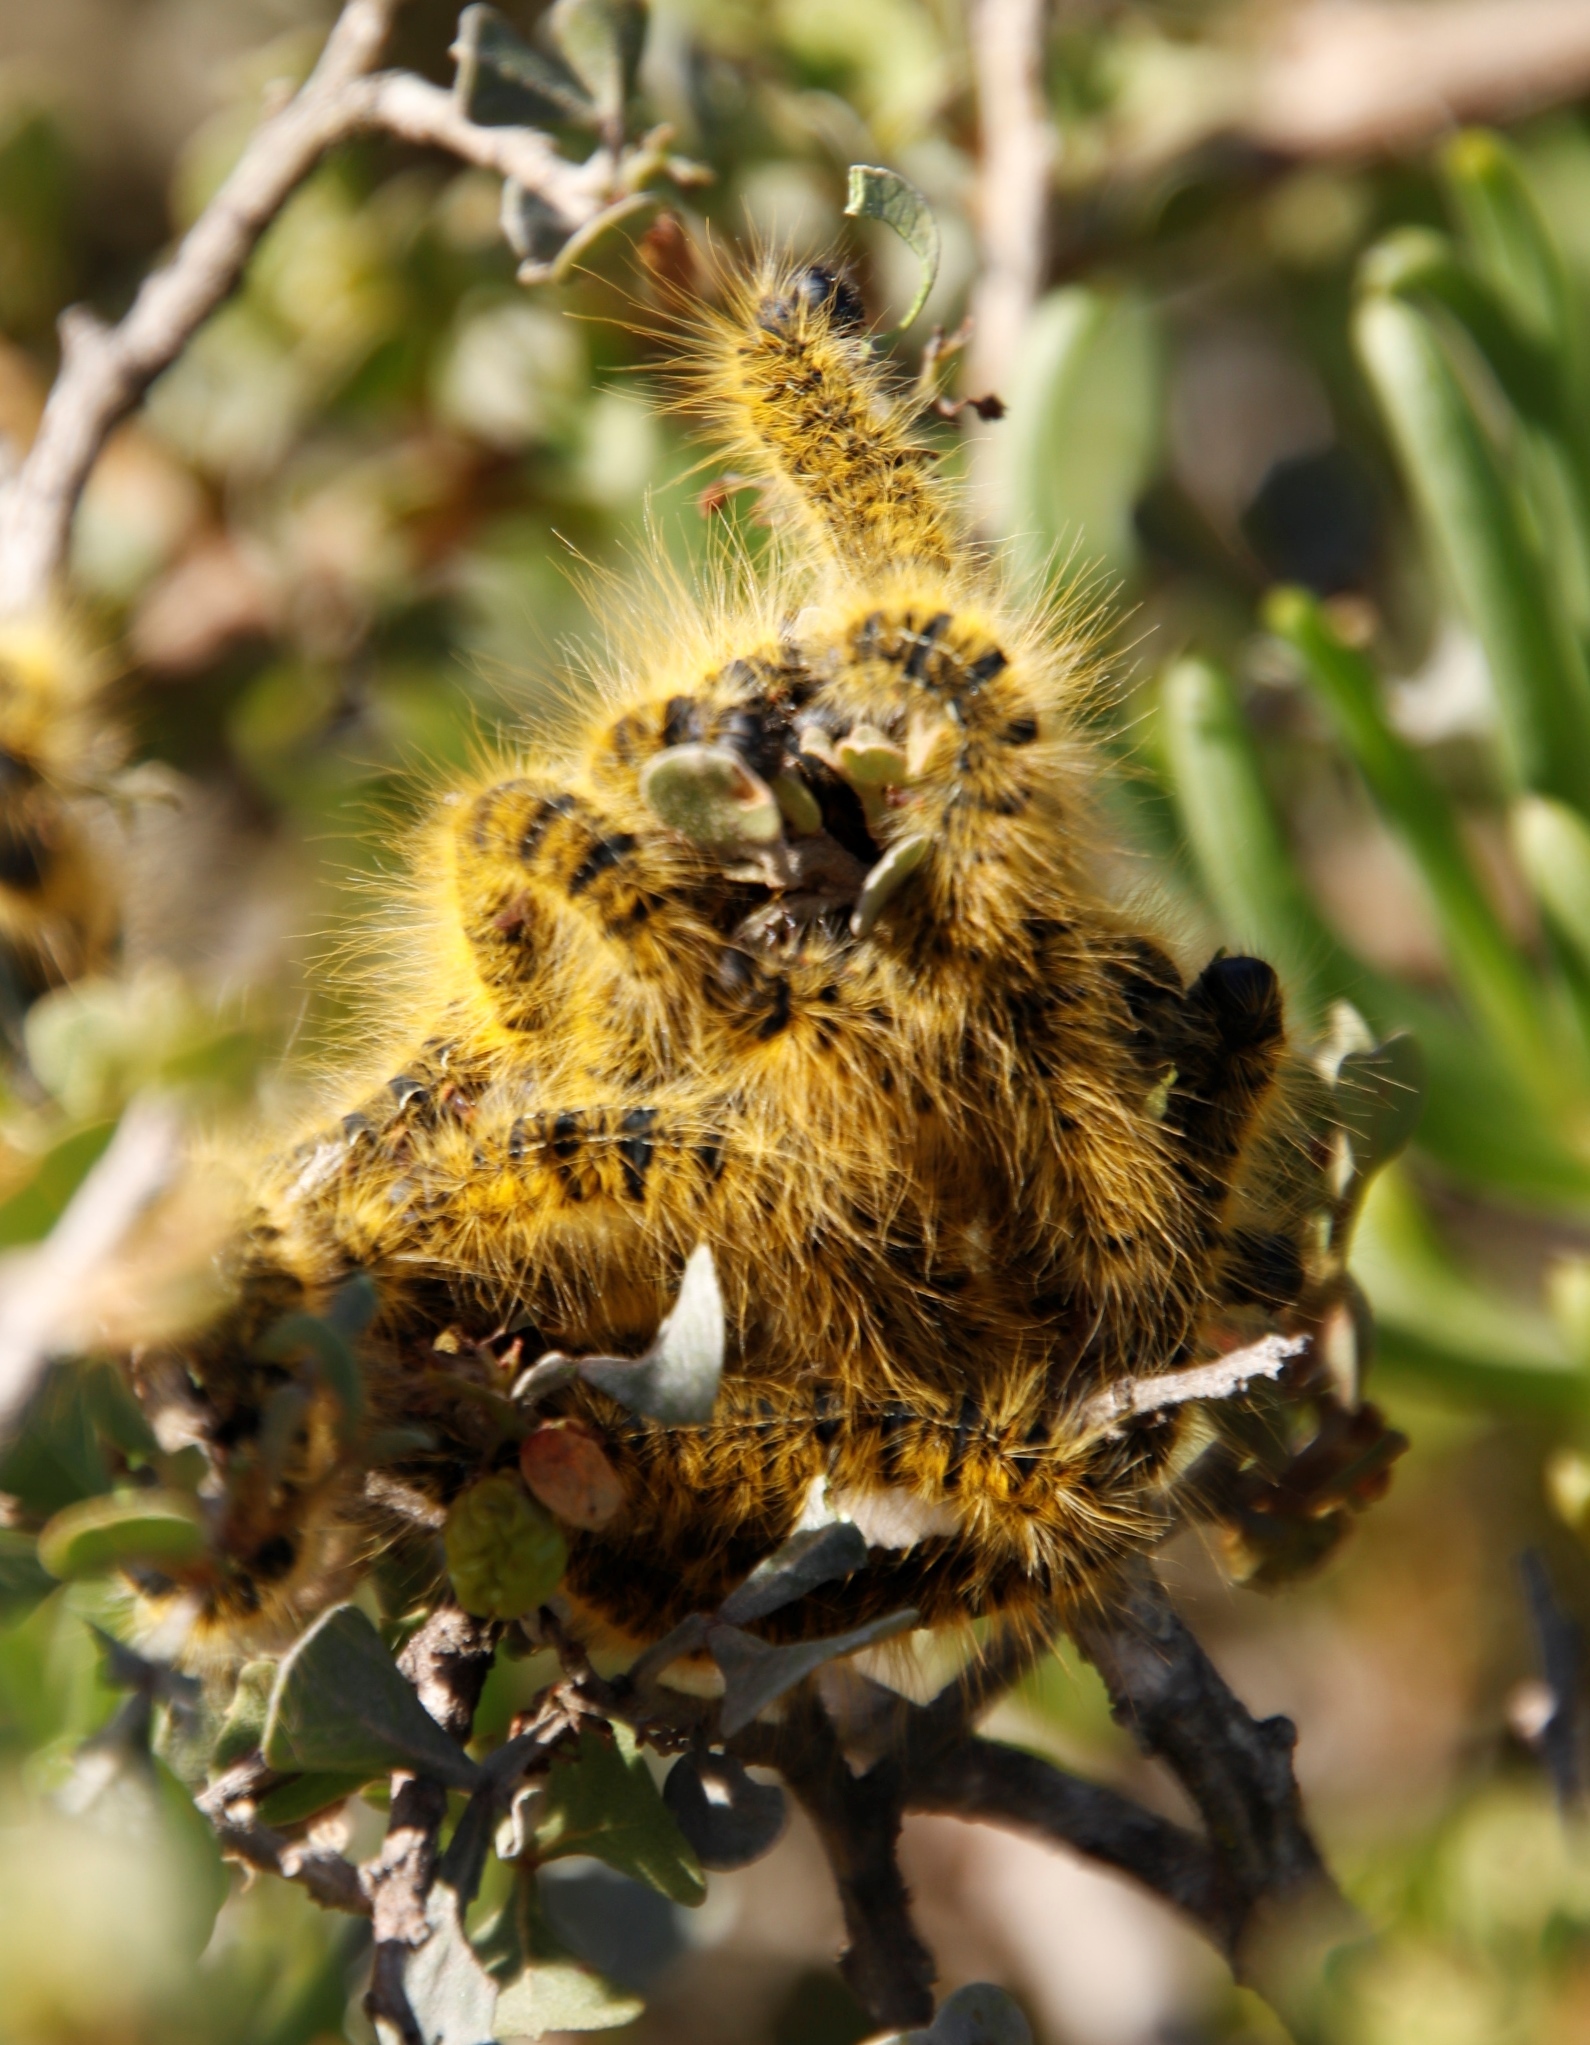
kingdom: Plantae
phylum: Tracheophyta
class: Magnoliopsida
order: Sapindales
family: Anacardiaceae
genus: Searsia
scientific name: Searsia glauca
